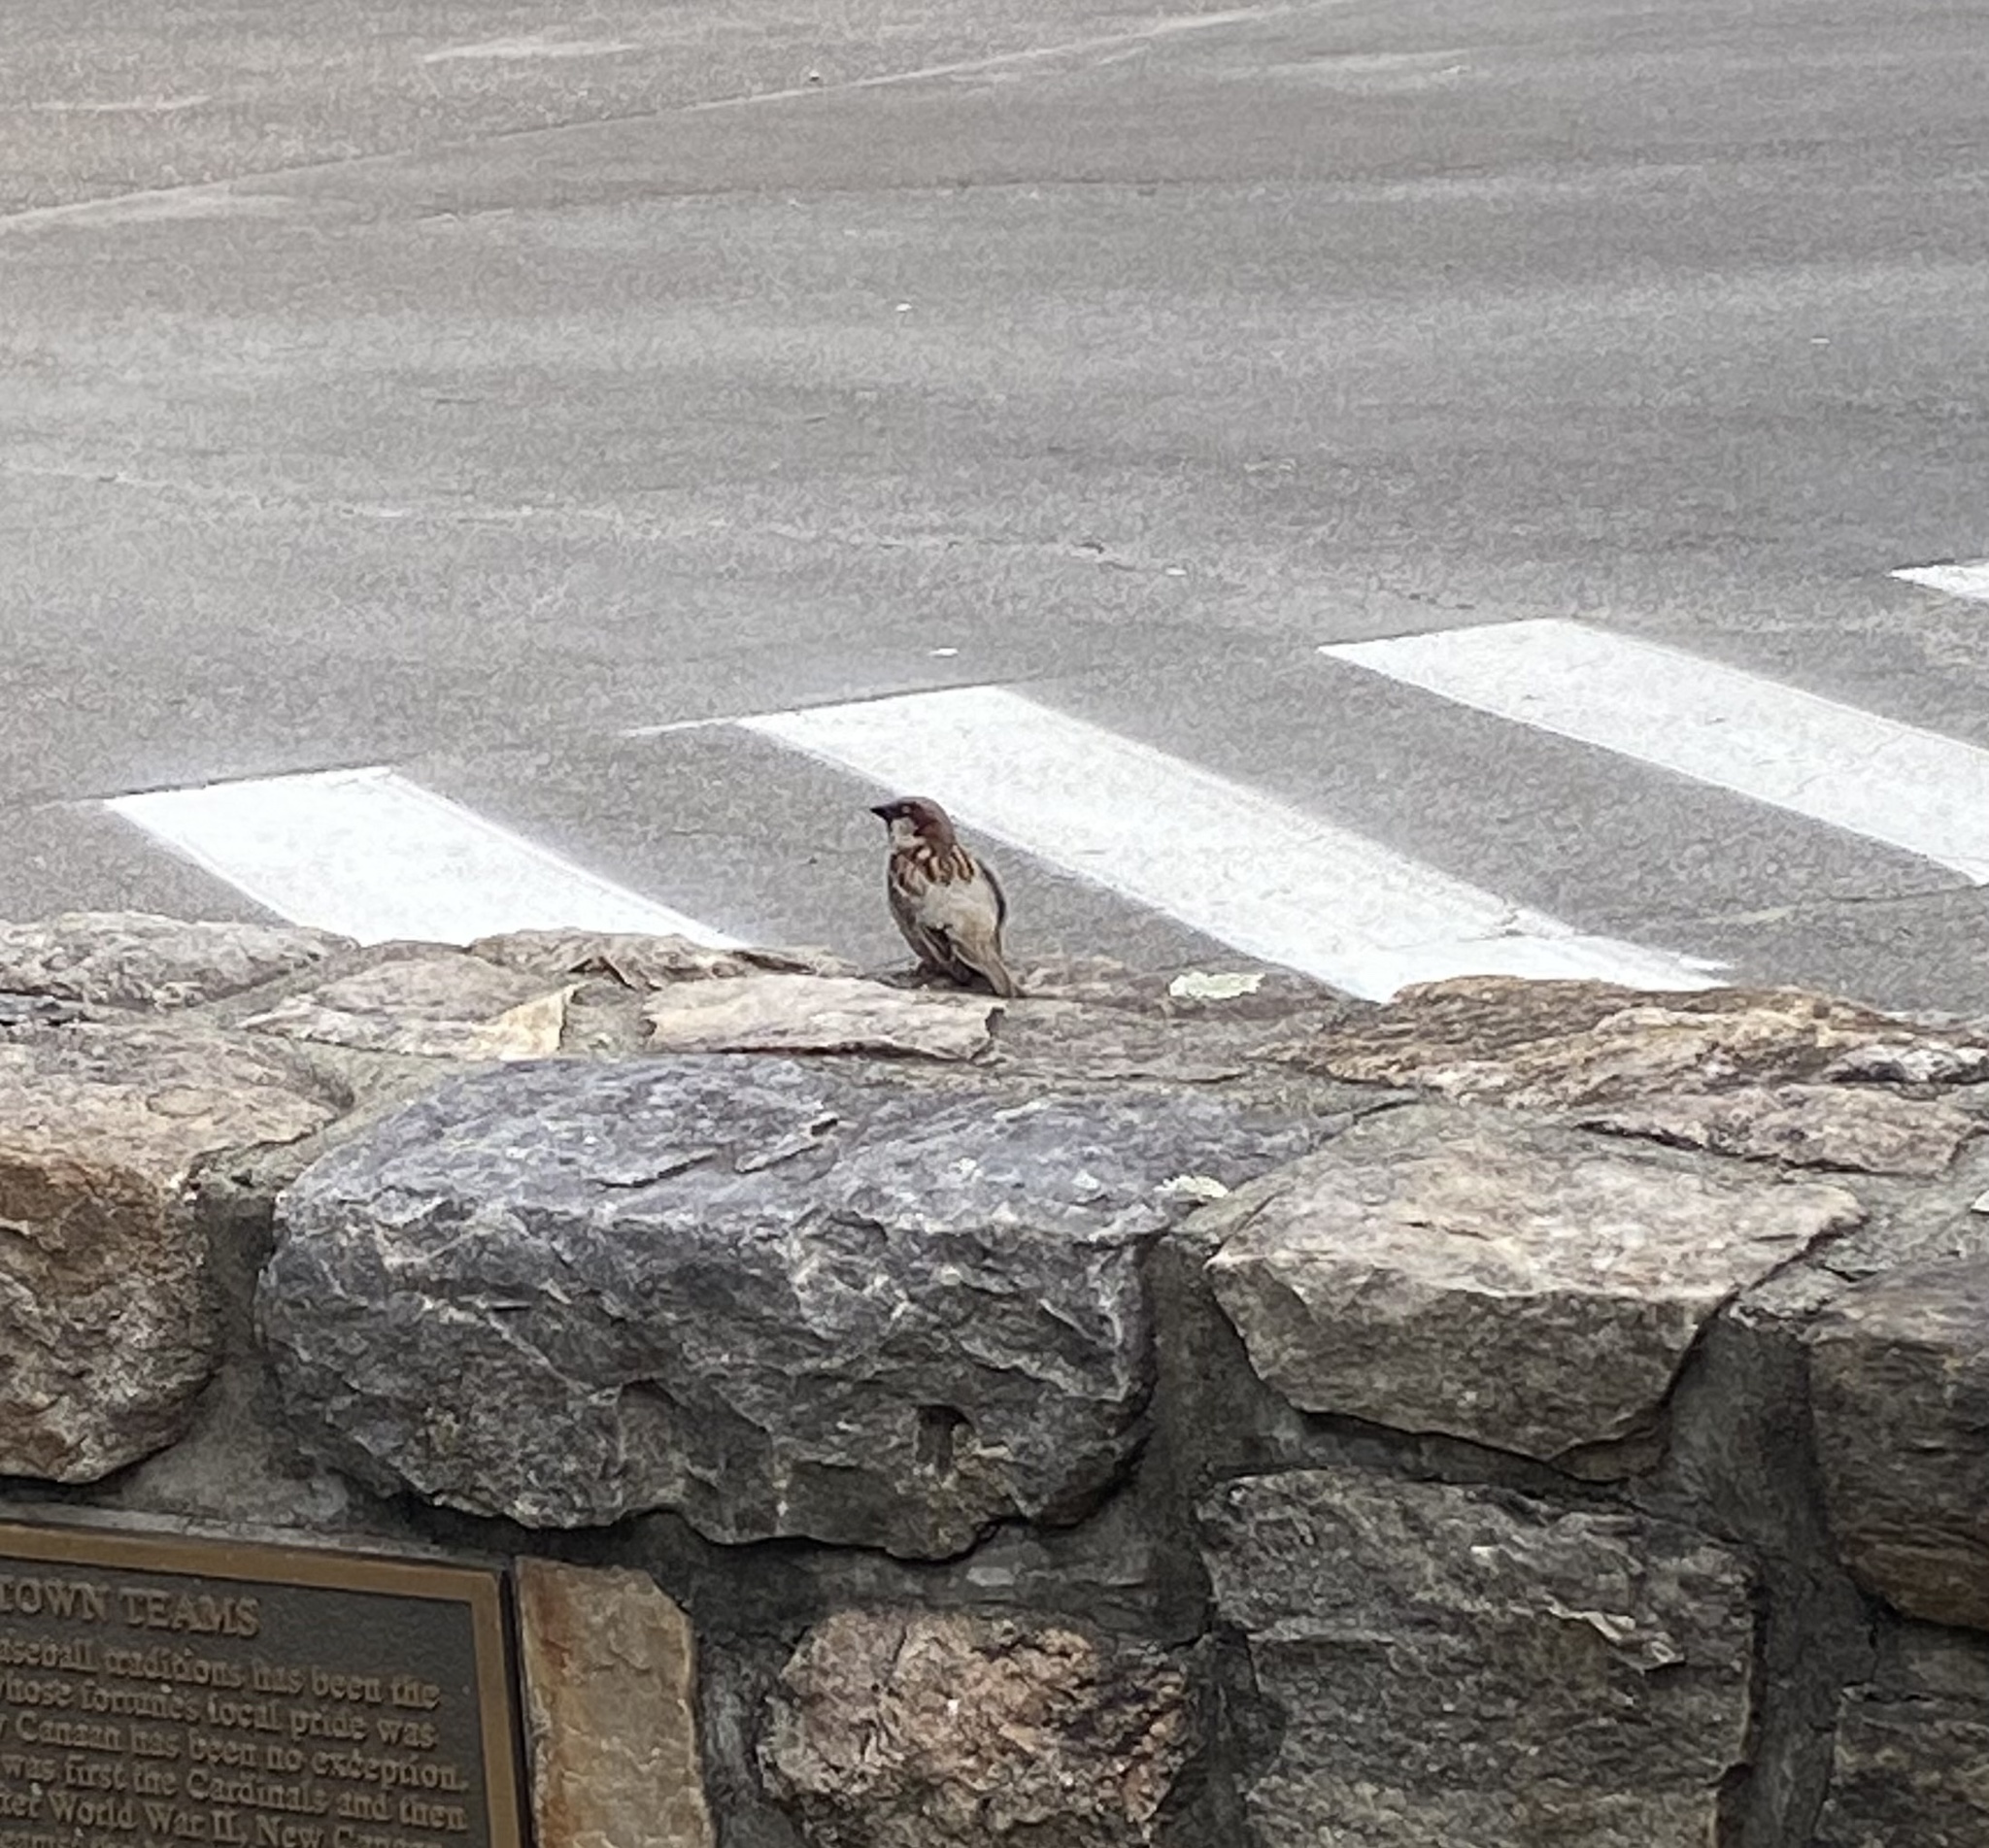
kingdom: Animalia
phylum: Chordata
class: Aves
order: Passeriformes
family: Passeridae
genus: Passer
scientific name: Passer domesticus
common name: House sparrow
